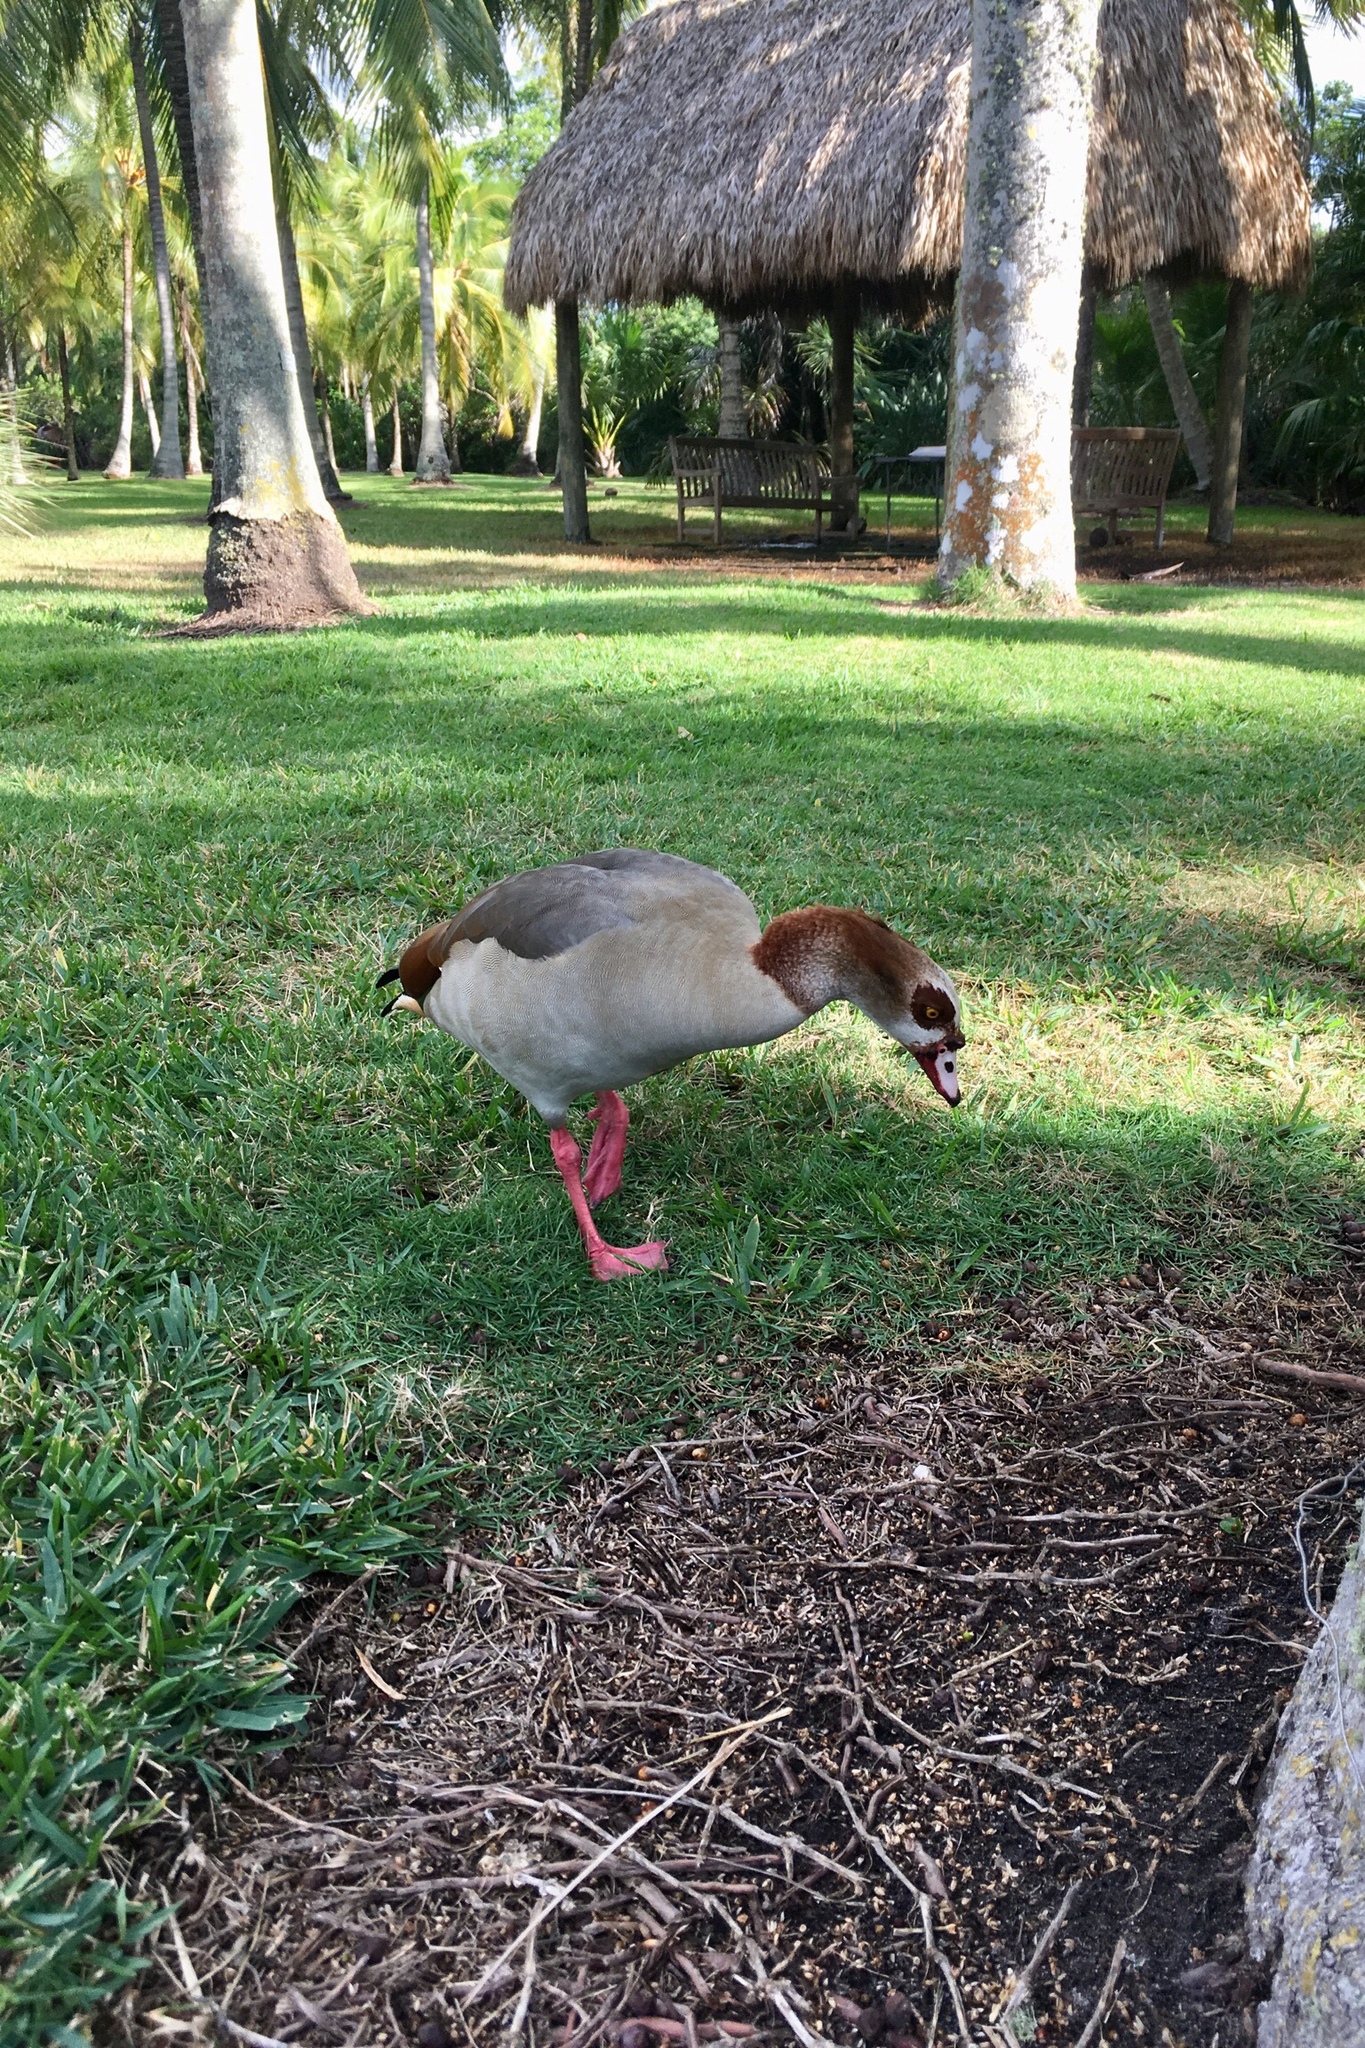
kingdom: Animalia
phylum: Chordata
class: Aves
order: Anseriformes
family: Anatidae
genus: Alopochen
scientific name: Alopochen aegyptiaca
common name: Egyptian goose
